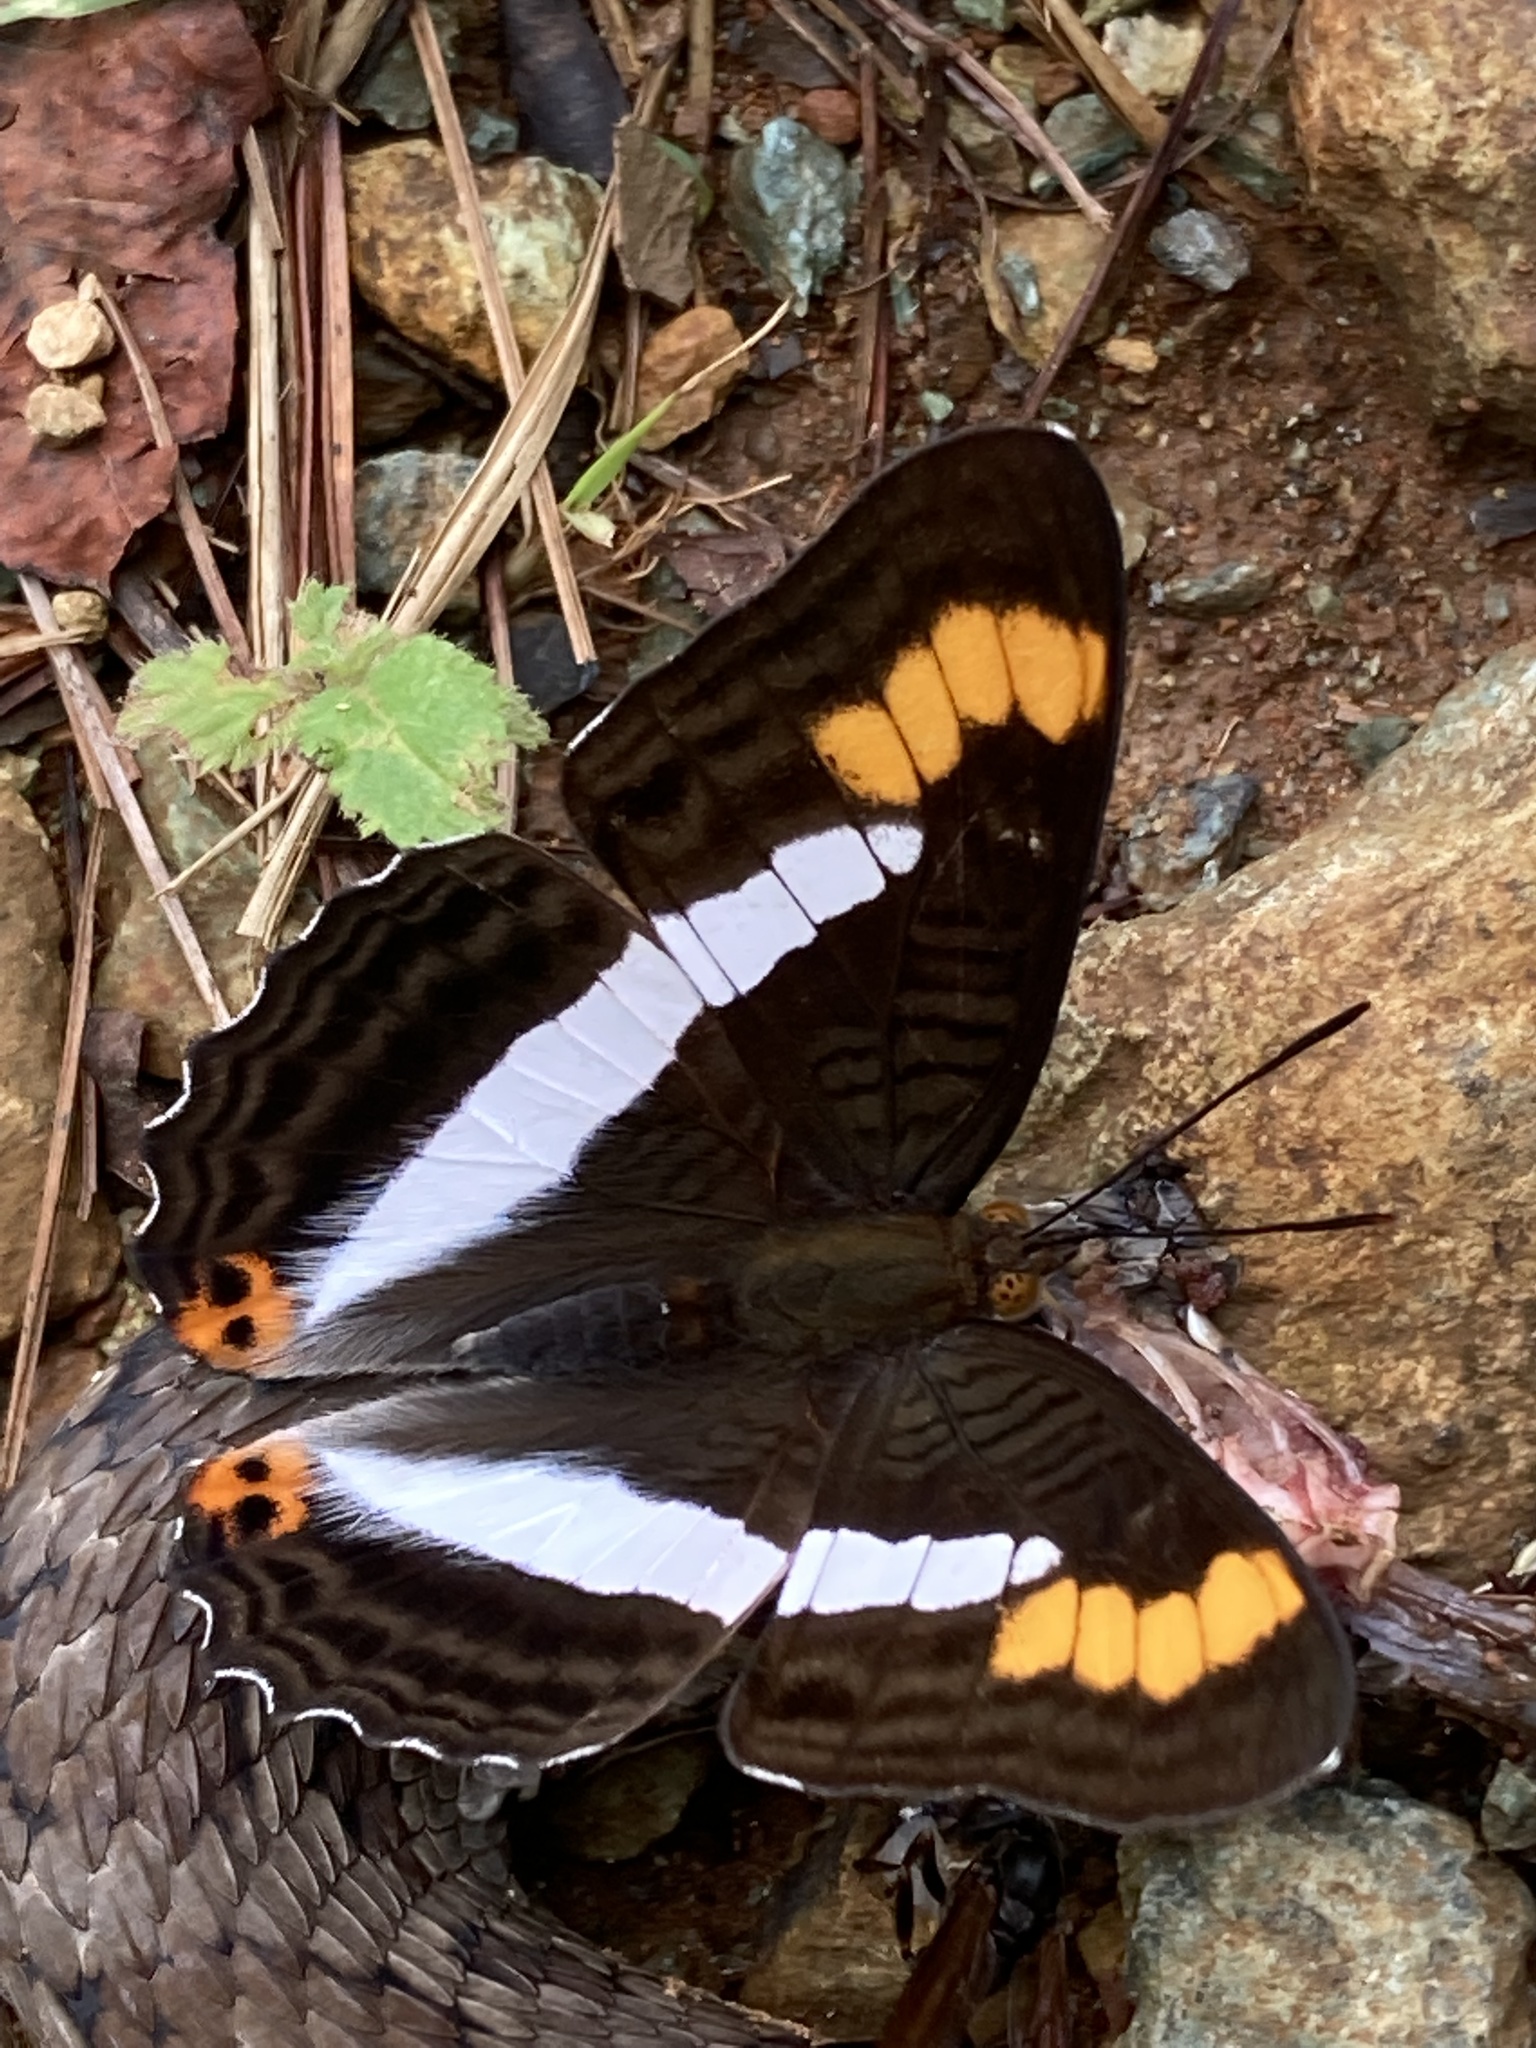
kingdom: Animalia
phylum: Arthropoda
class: Insecta
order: Lepidoptera
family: Nymphalidae
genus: Limenitis
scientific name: Limenitis pithys
